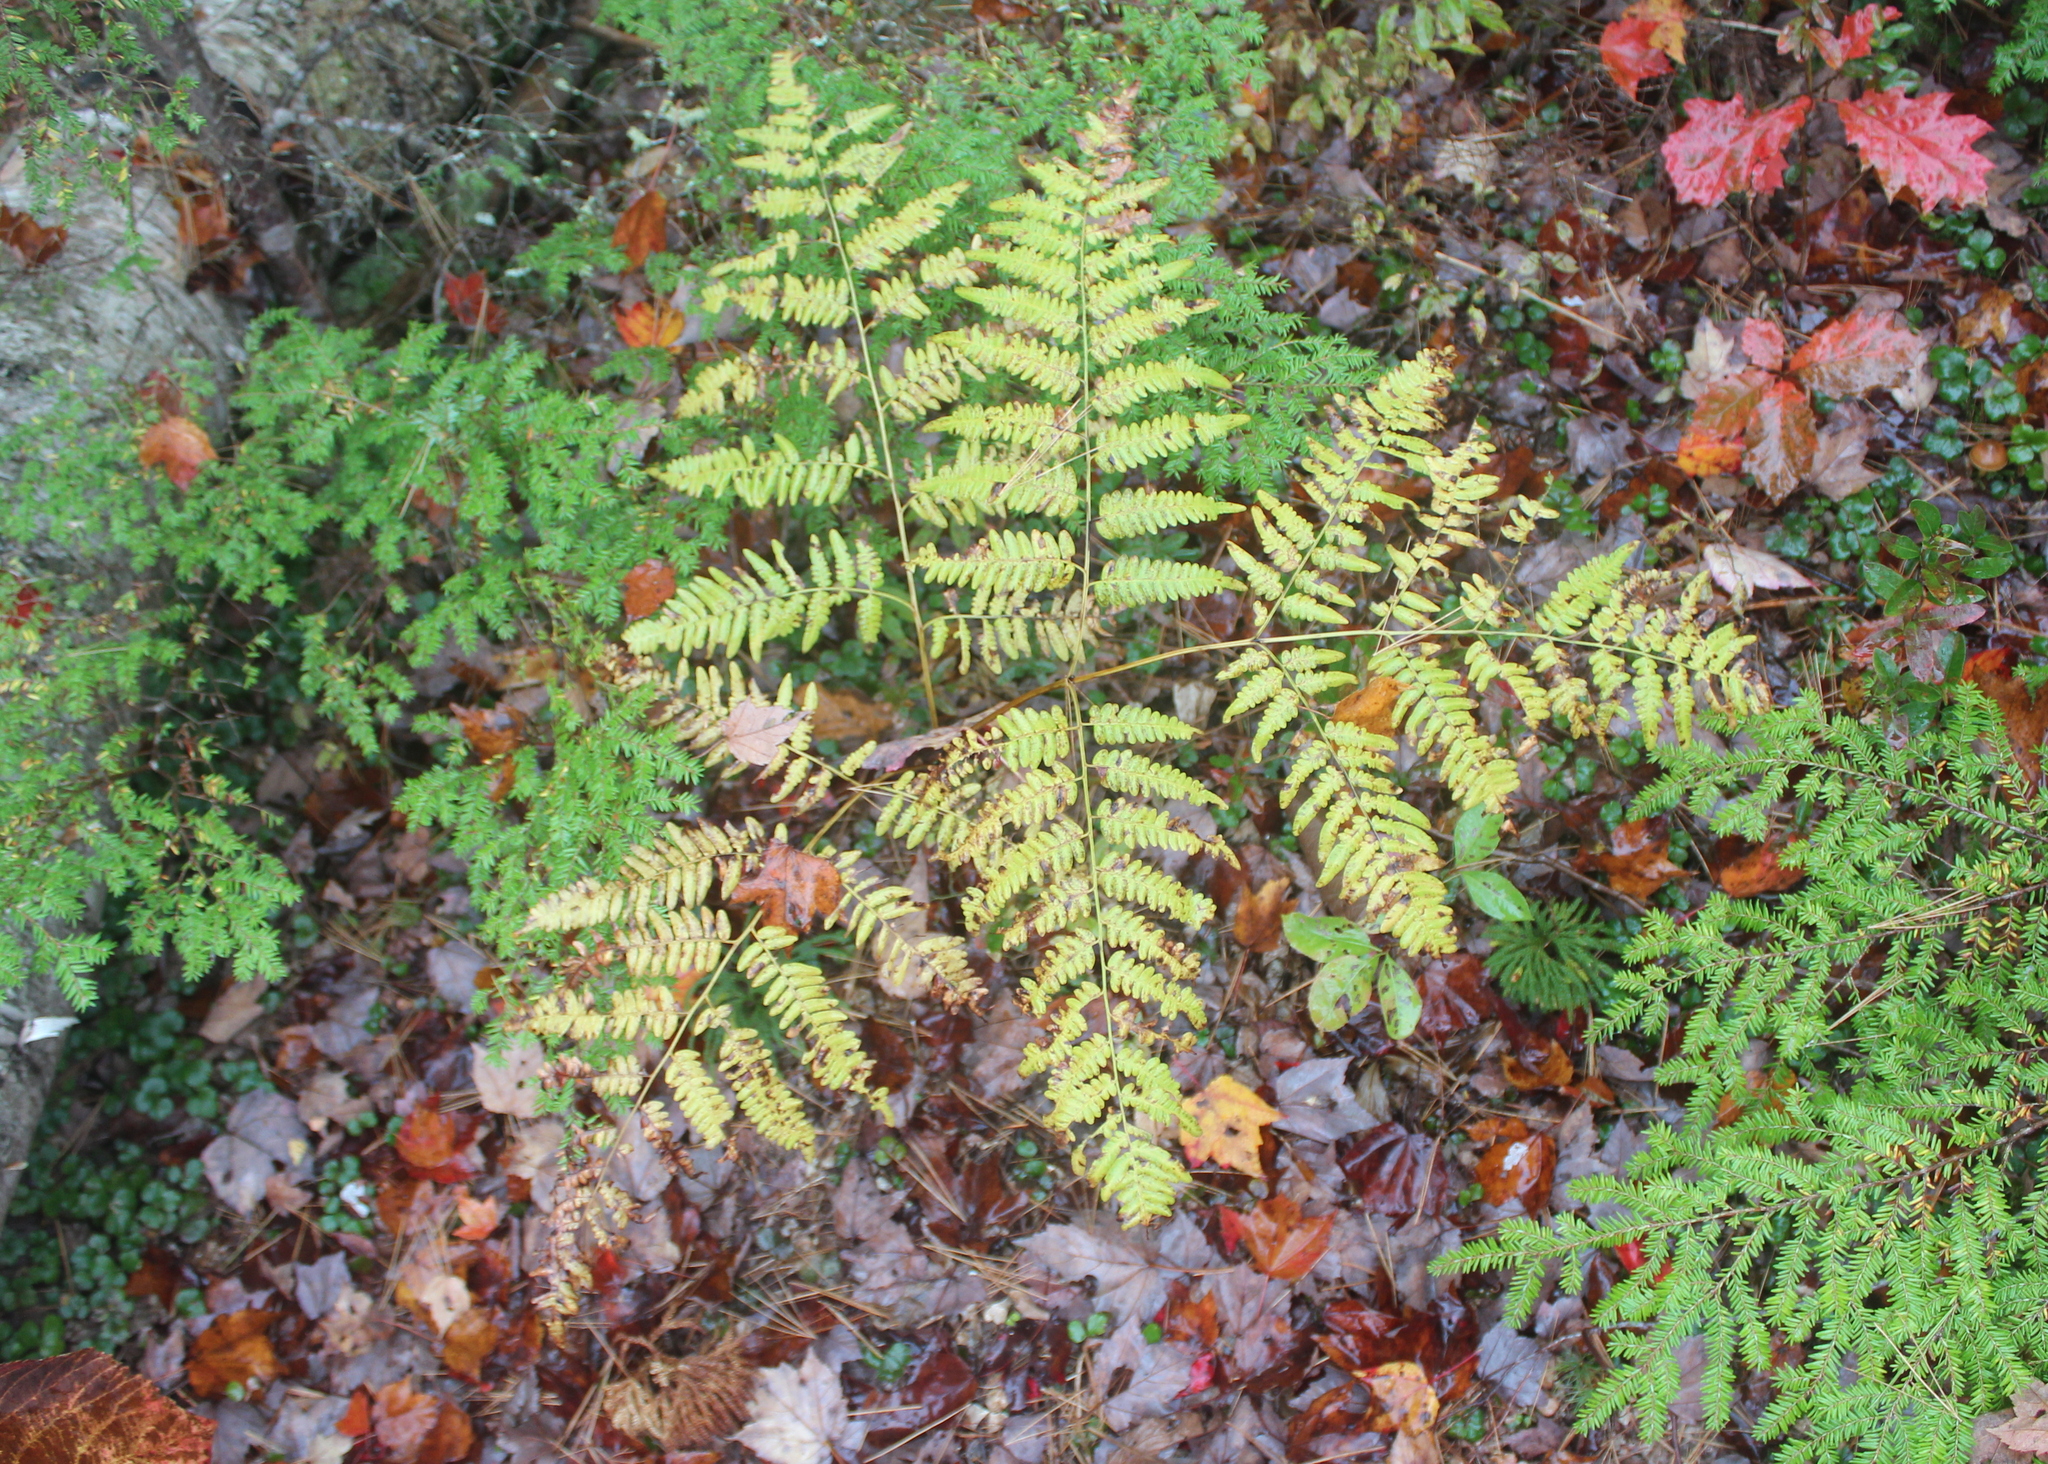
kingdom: Plantae
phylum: Tracheophyta
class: Polypodiopsida
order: Polypodiales
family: Dennstaedtiaceae
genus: Pteridium
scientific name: Pteridium aquilinum
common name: Bracken
